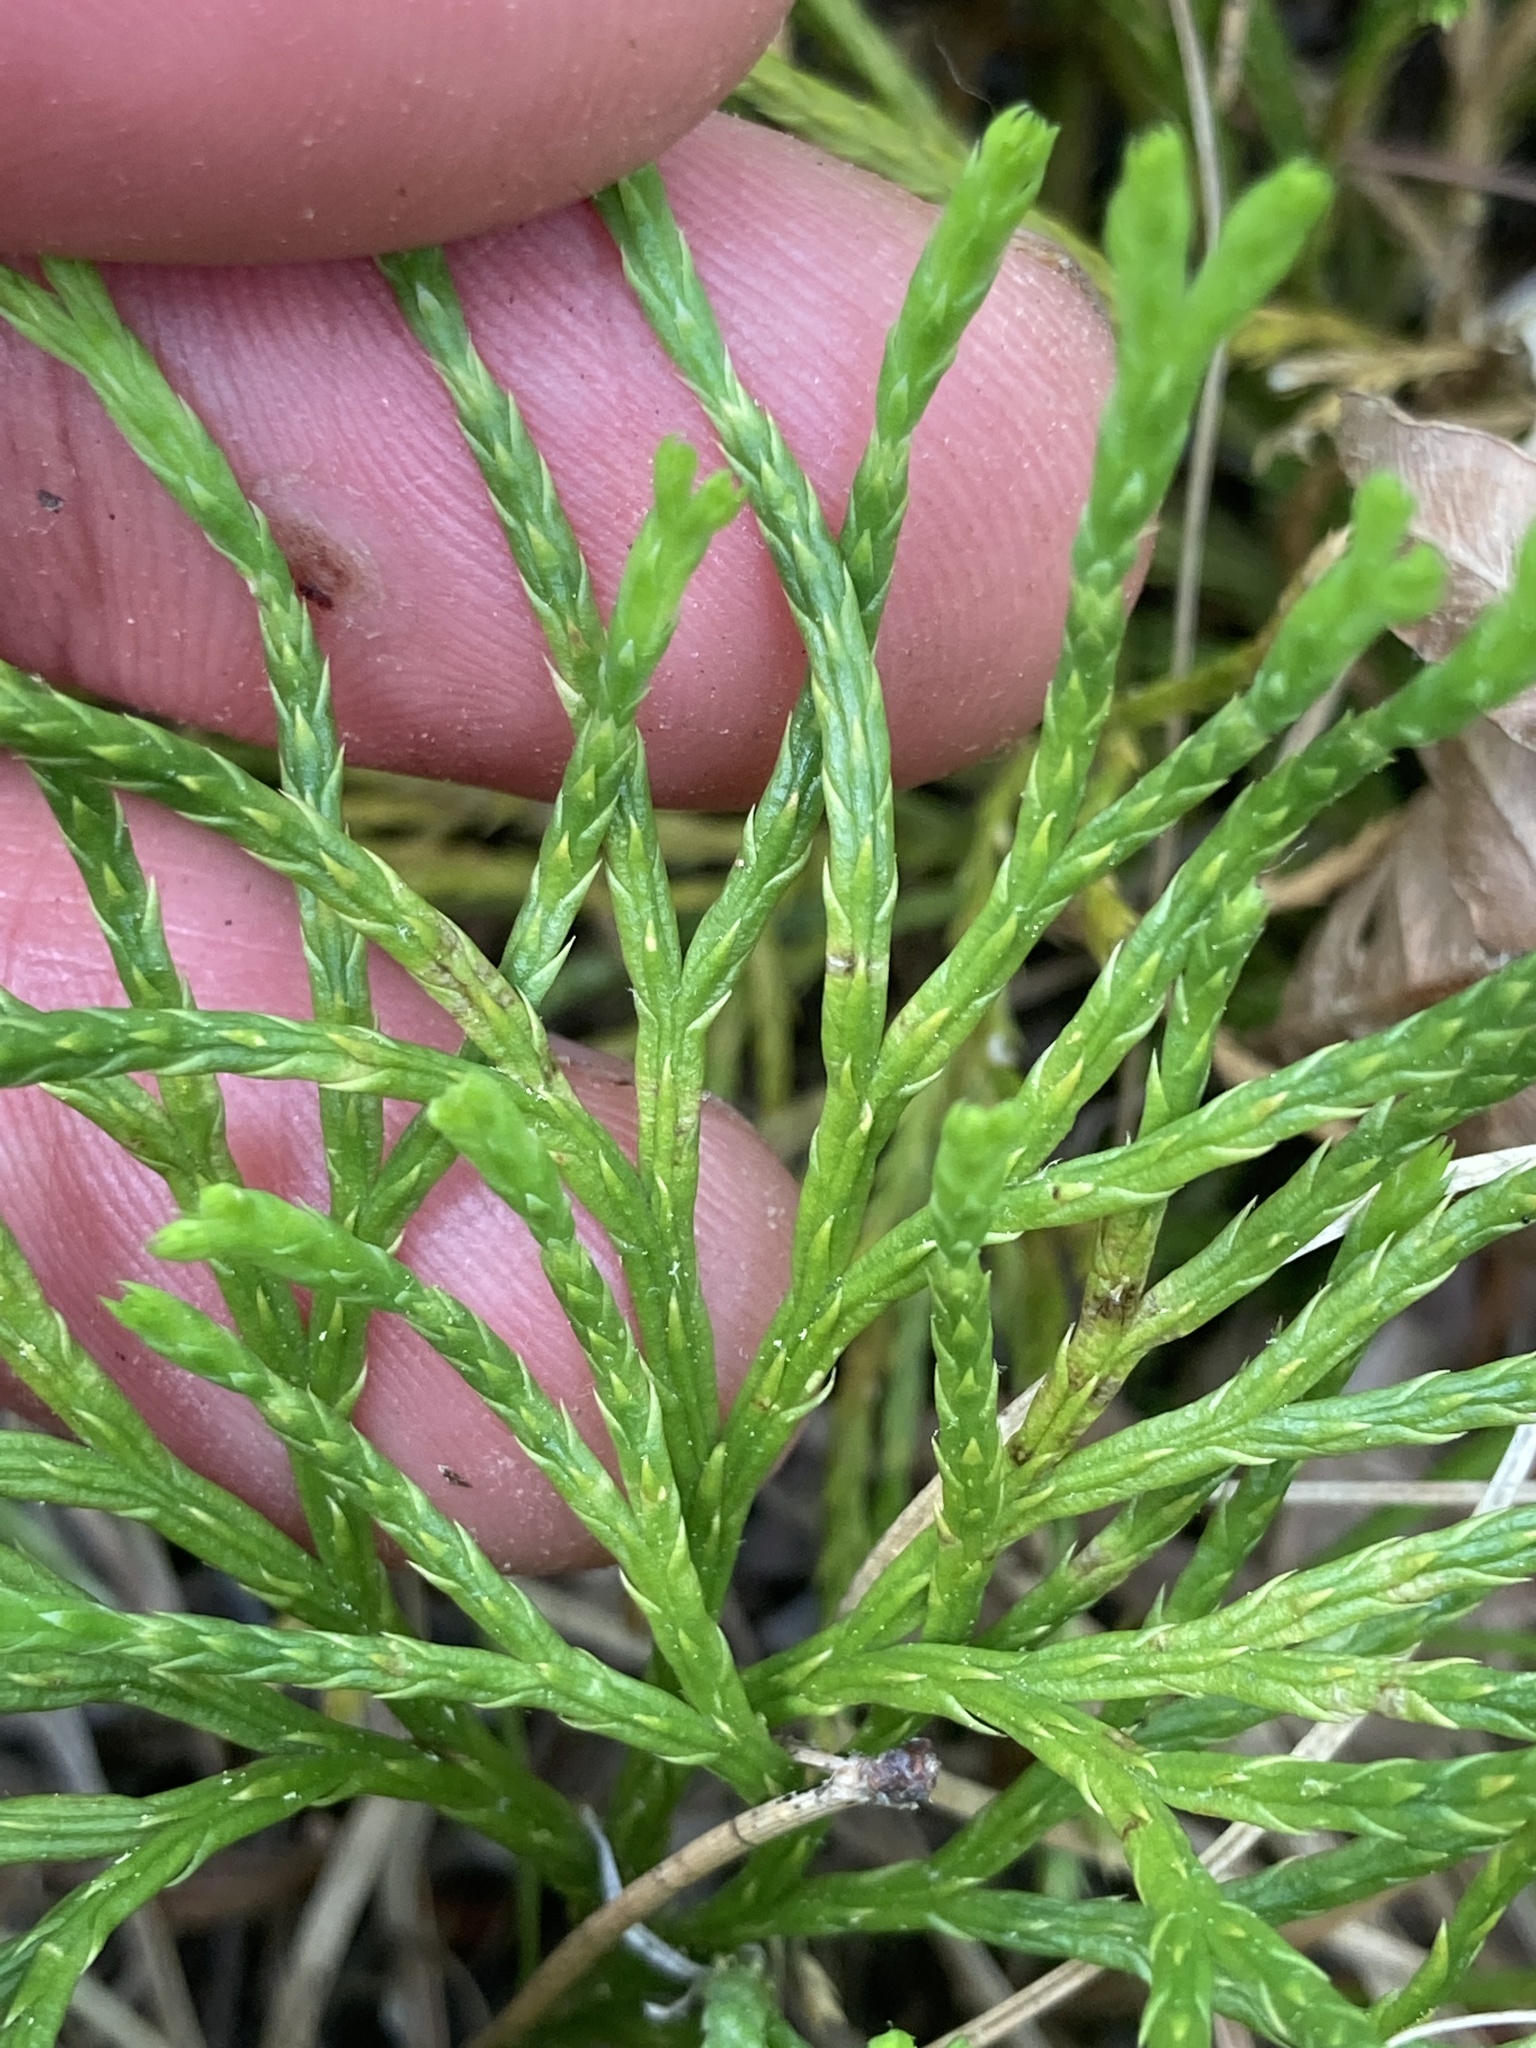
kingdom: Plantae
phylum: Tracheophyta
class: Lycopodiopsida
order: Lycopodiales
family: Lycopodiaceae
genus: Diphasiastrum
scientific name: Diphasiastrum digitatum
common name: Southern running-pine
